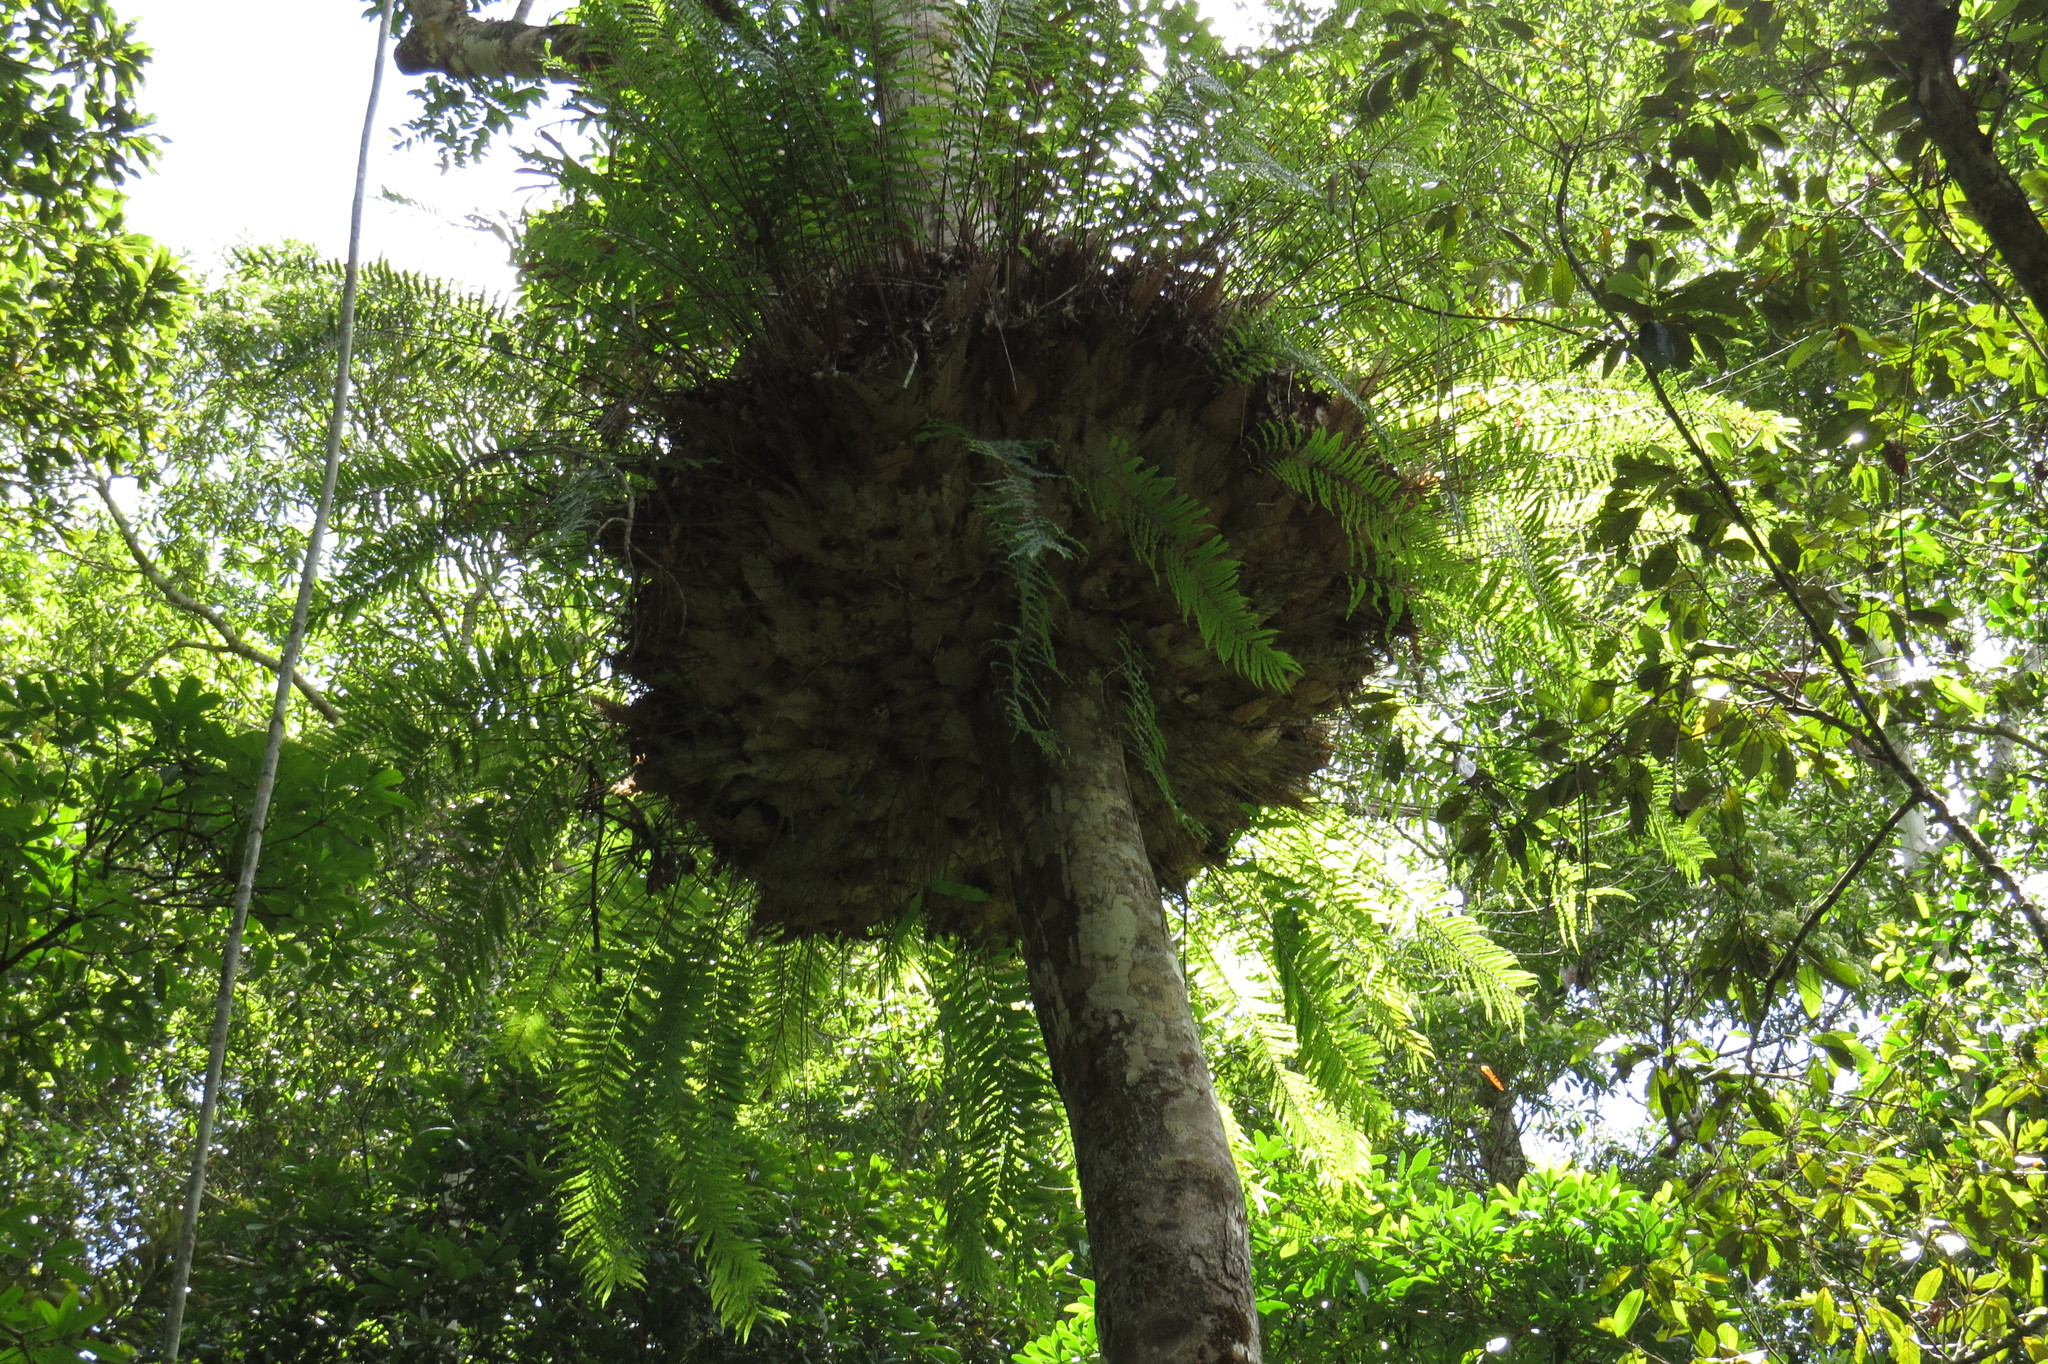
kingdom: Plantae
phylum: Tracheophyta
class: Polypodiopsida
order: Polypodiales
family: Polypodiaceae
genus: Drynaria
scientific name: Drynaria rigidula
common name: Basket fern
